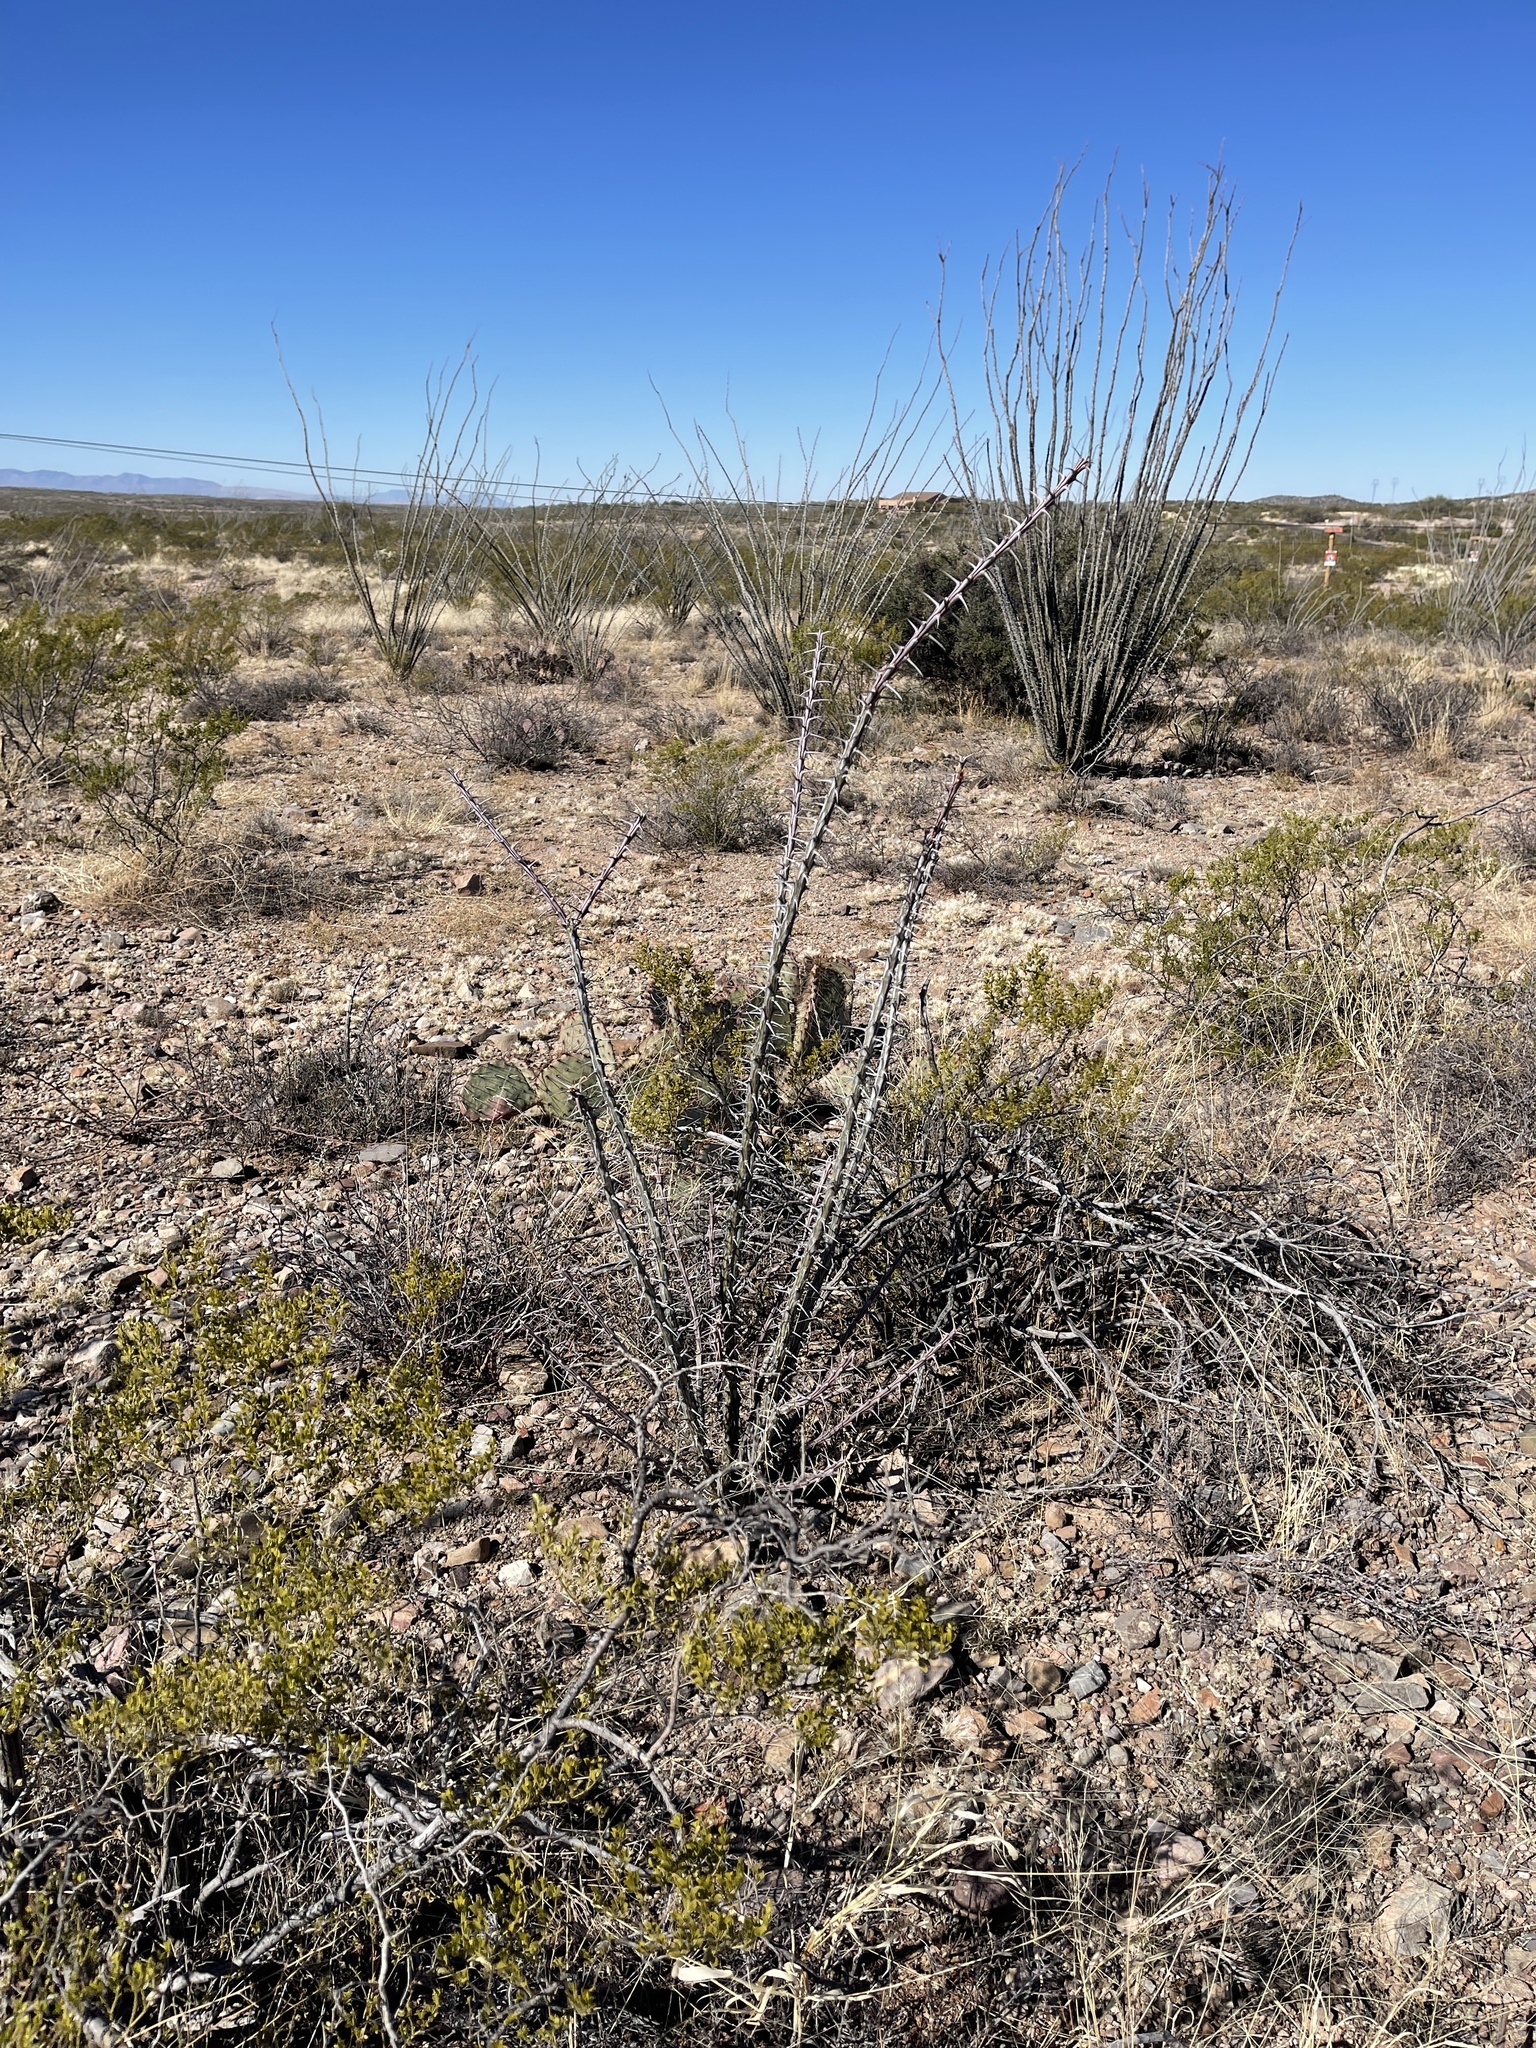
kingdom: Plantae
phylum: Tracheophyta
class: Magnoliopsida
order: Ericales
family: Fouquieriaceae
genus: Fouquieria
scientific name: Fouquieria splendens
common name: Vine-cactus
